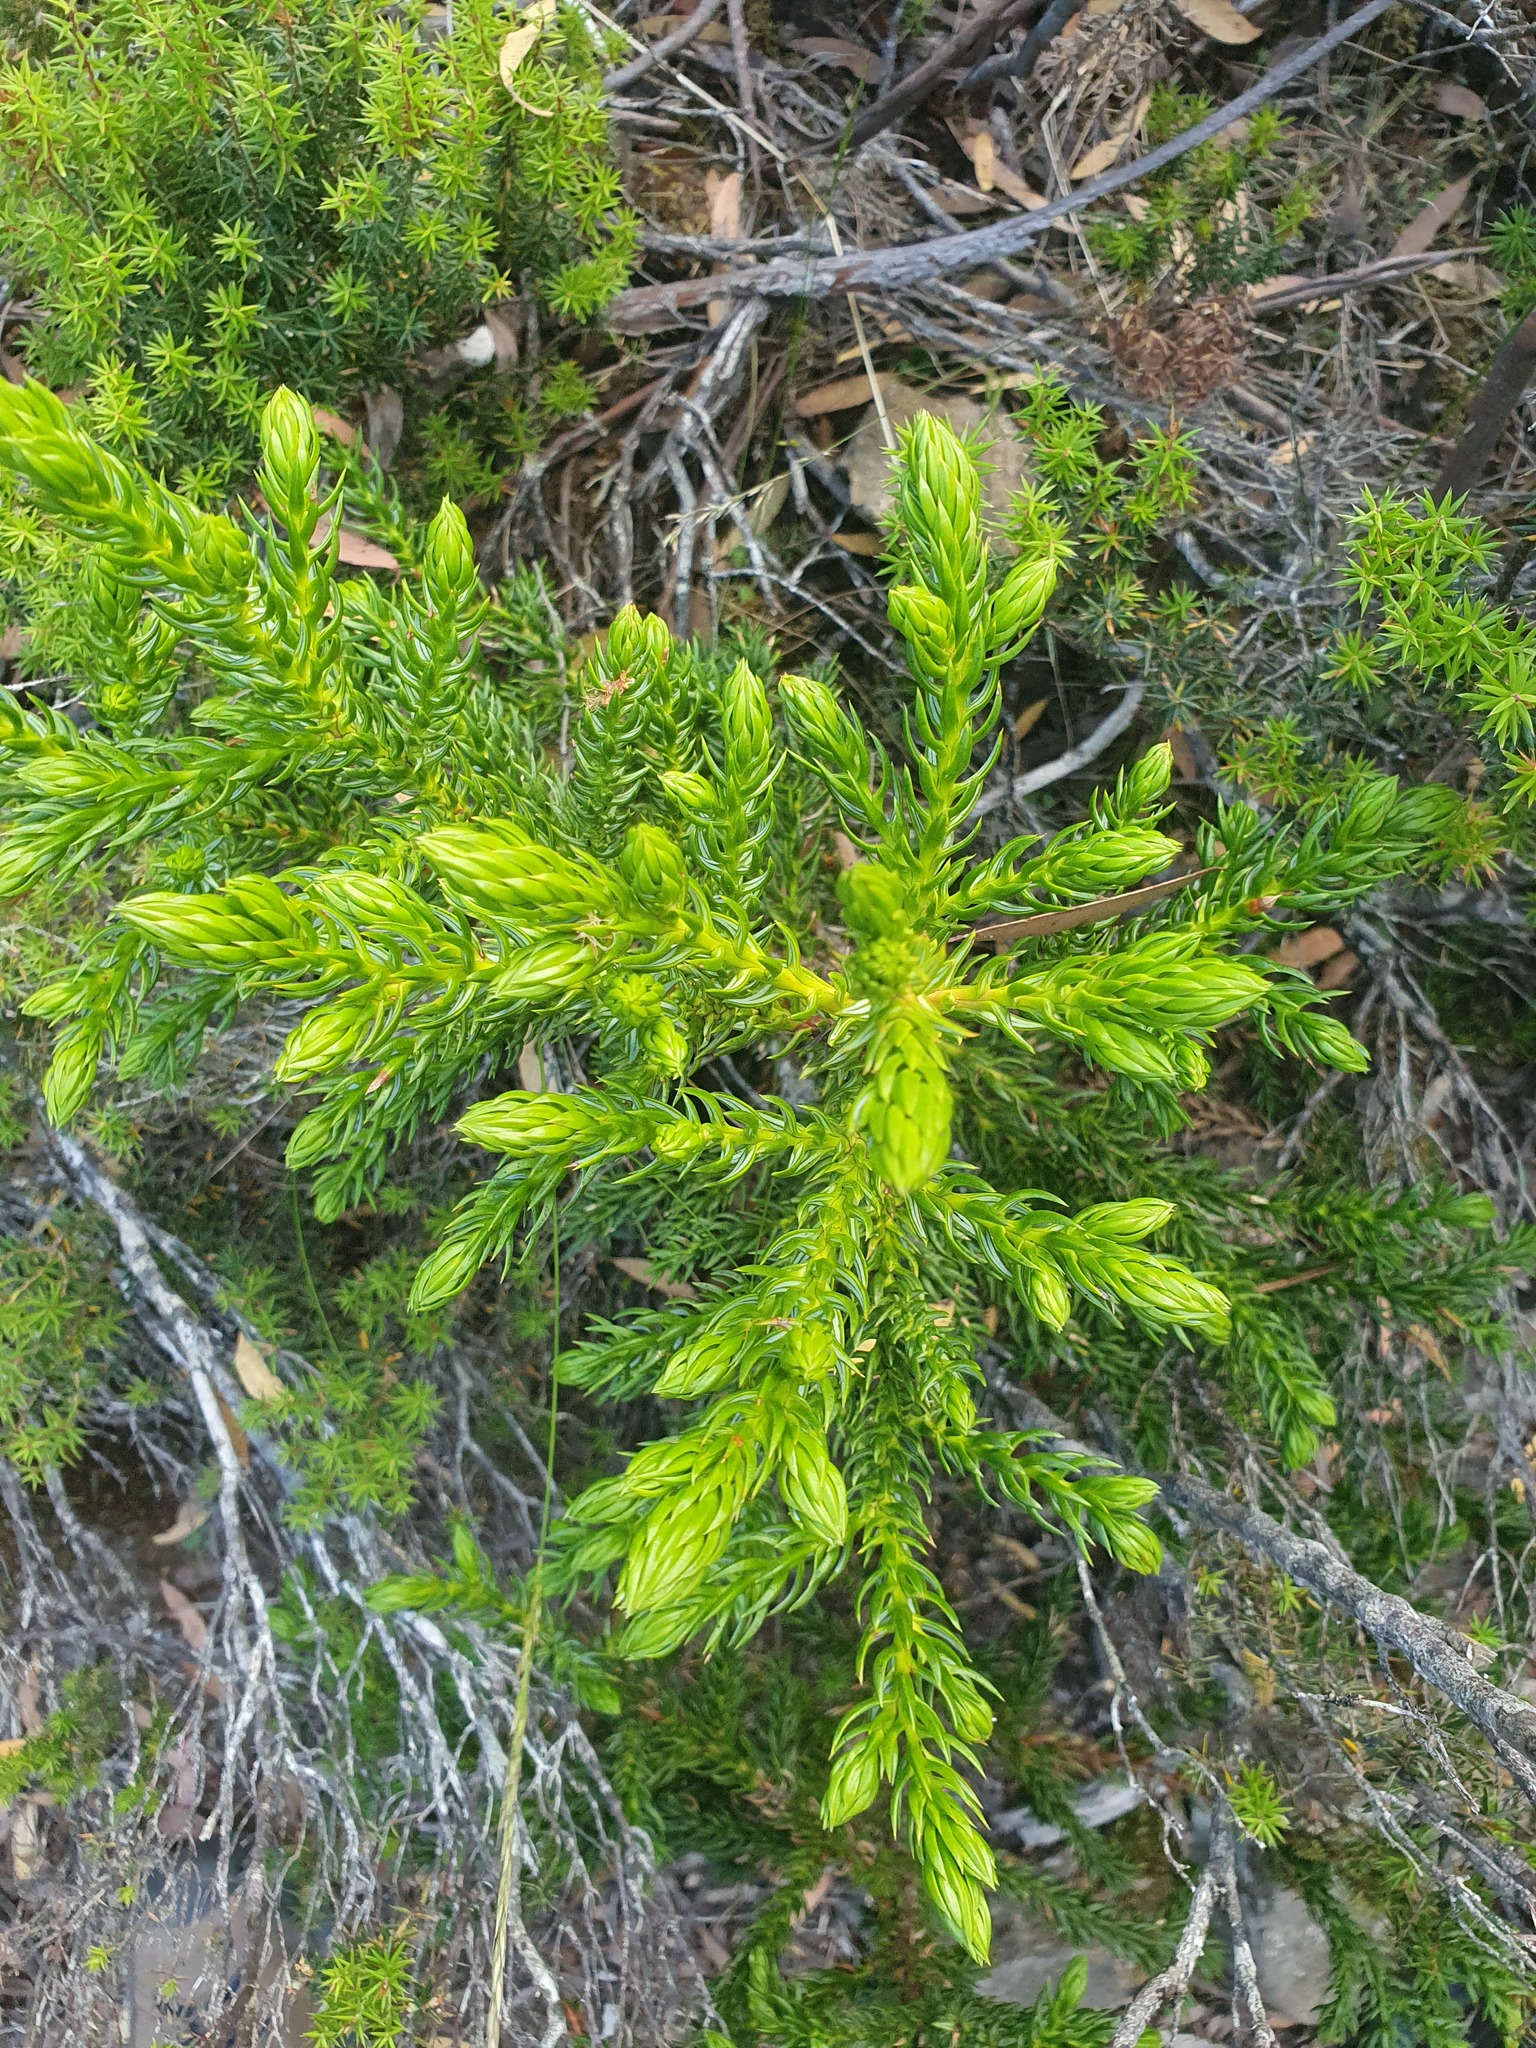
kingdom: Plantae
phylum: Tracheophyta
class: Pinopsida
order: Pinales
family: Cupressaceae
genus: Athrotaxis
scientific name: Athrotaxis selaginoides
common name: King william pine
